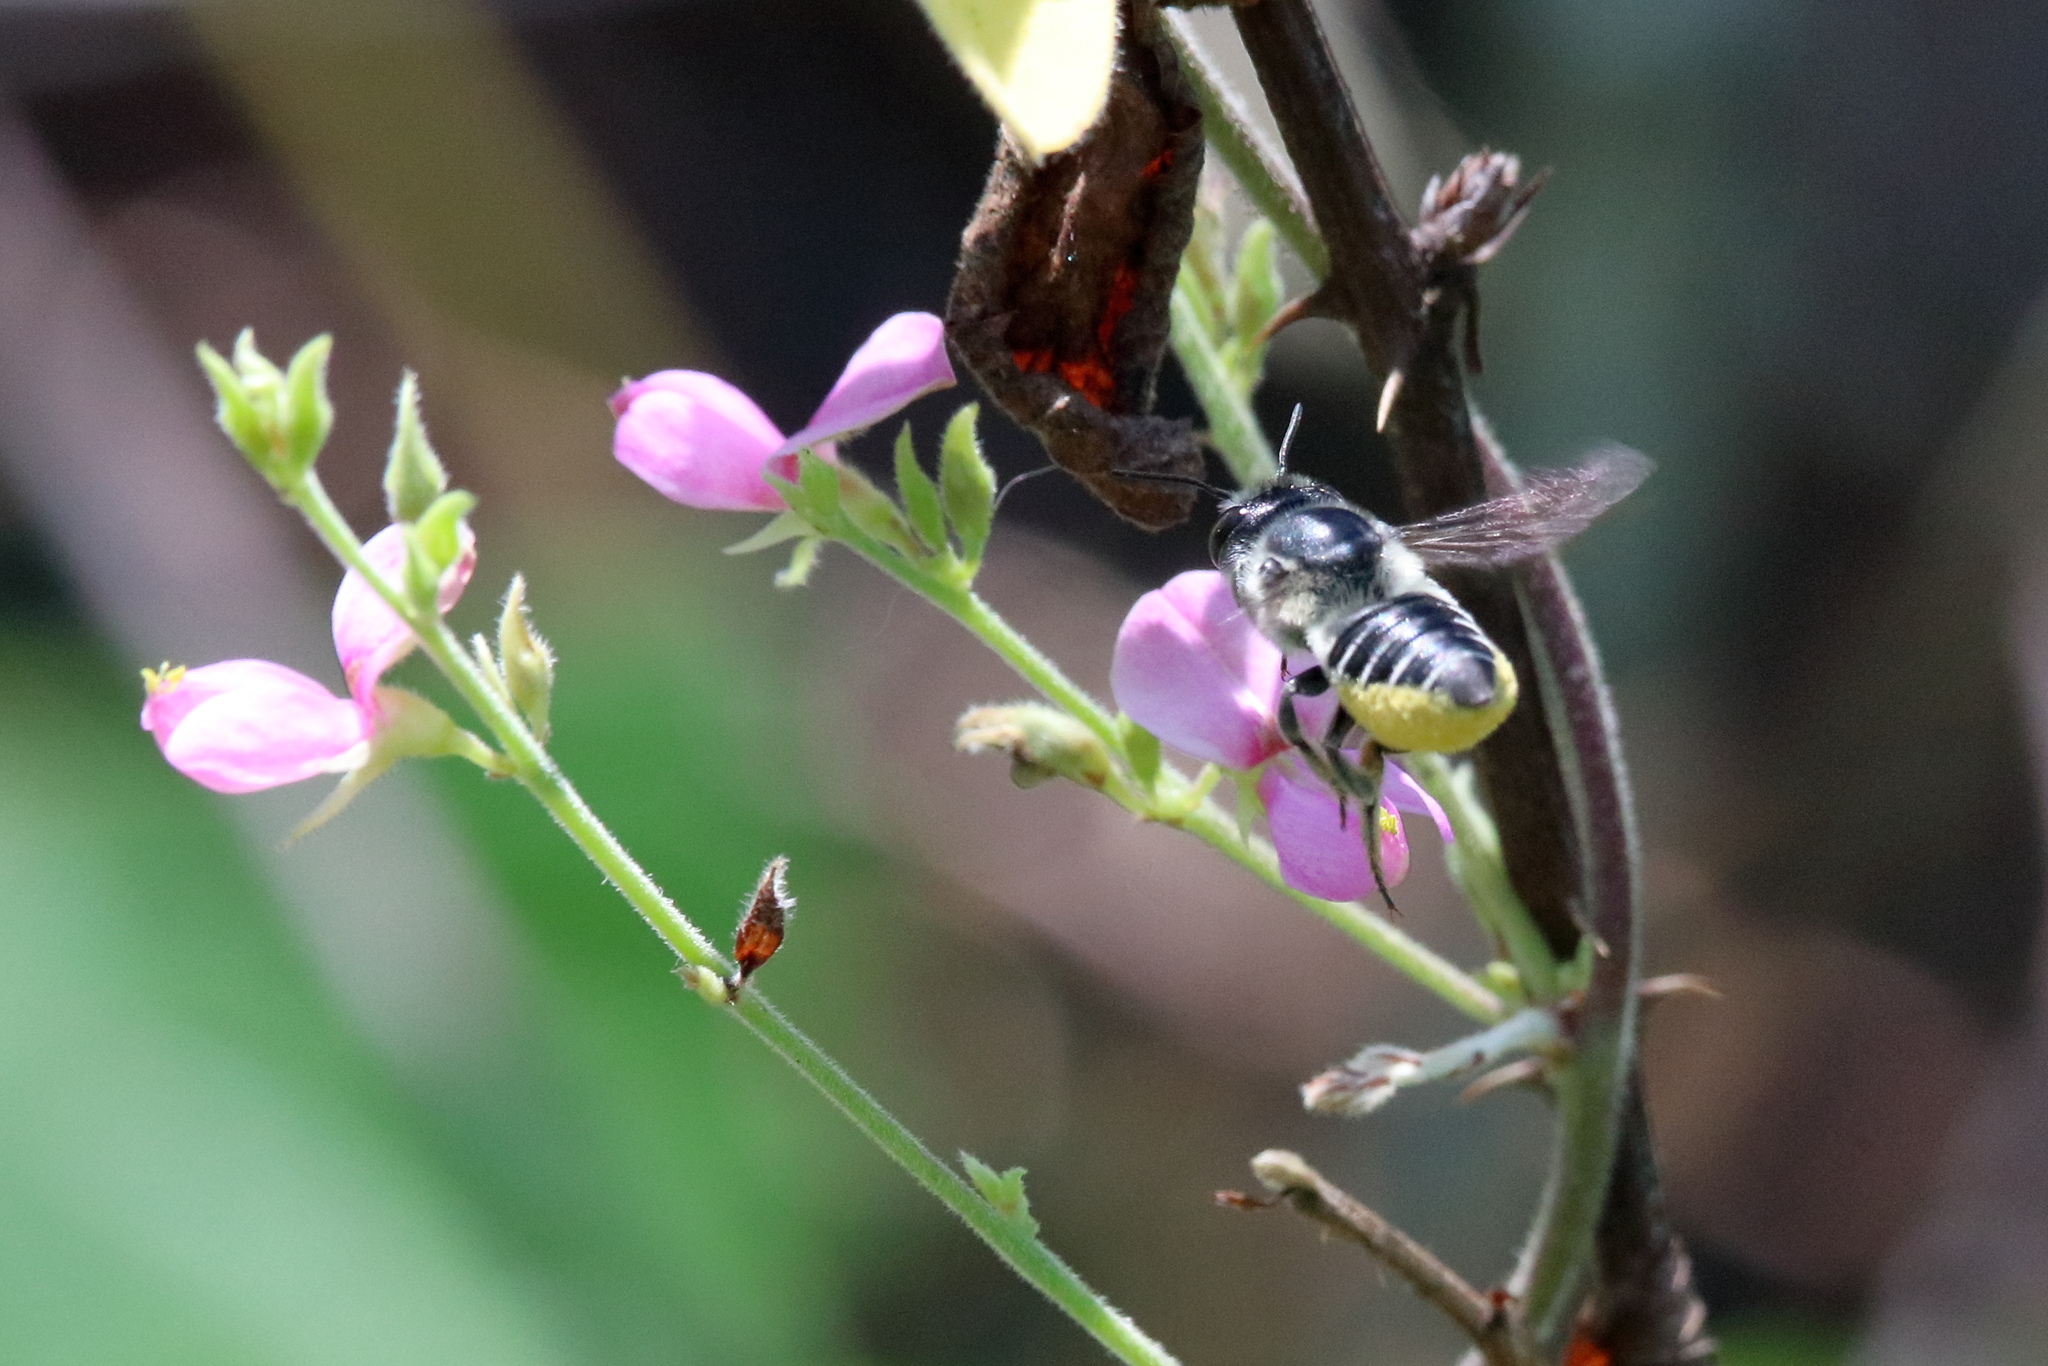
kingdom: Animalia
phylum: Arthropoda
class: Insecta
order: Hymenoptera
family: Megachilidae
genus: Megachile
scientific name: Megachile mendica
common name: Flat-tailed leafcutter
